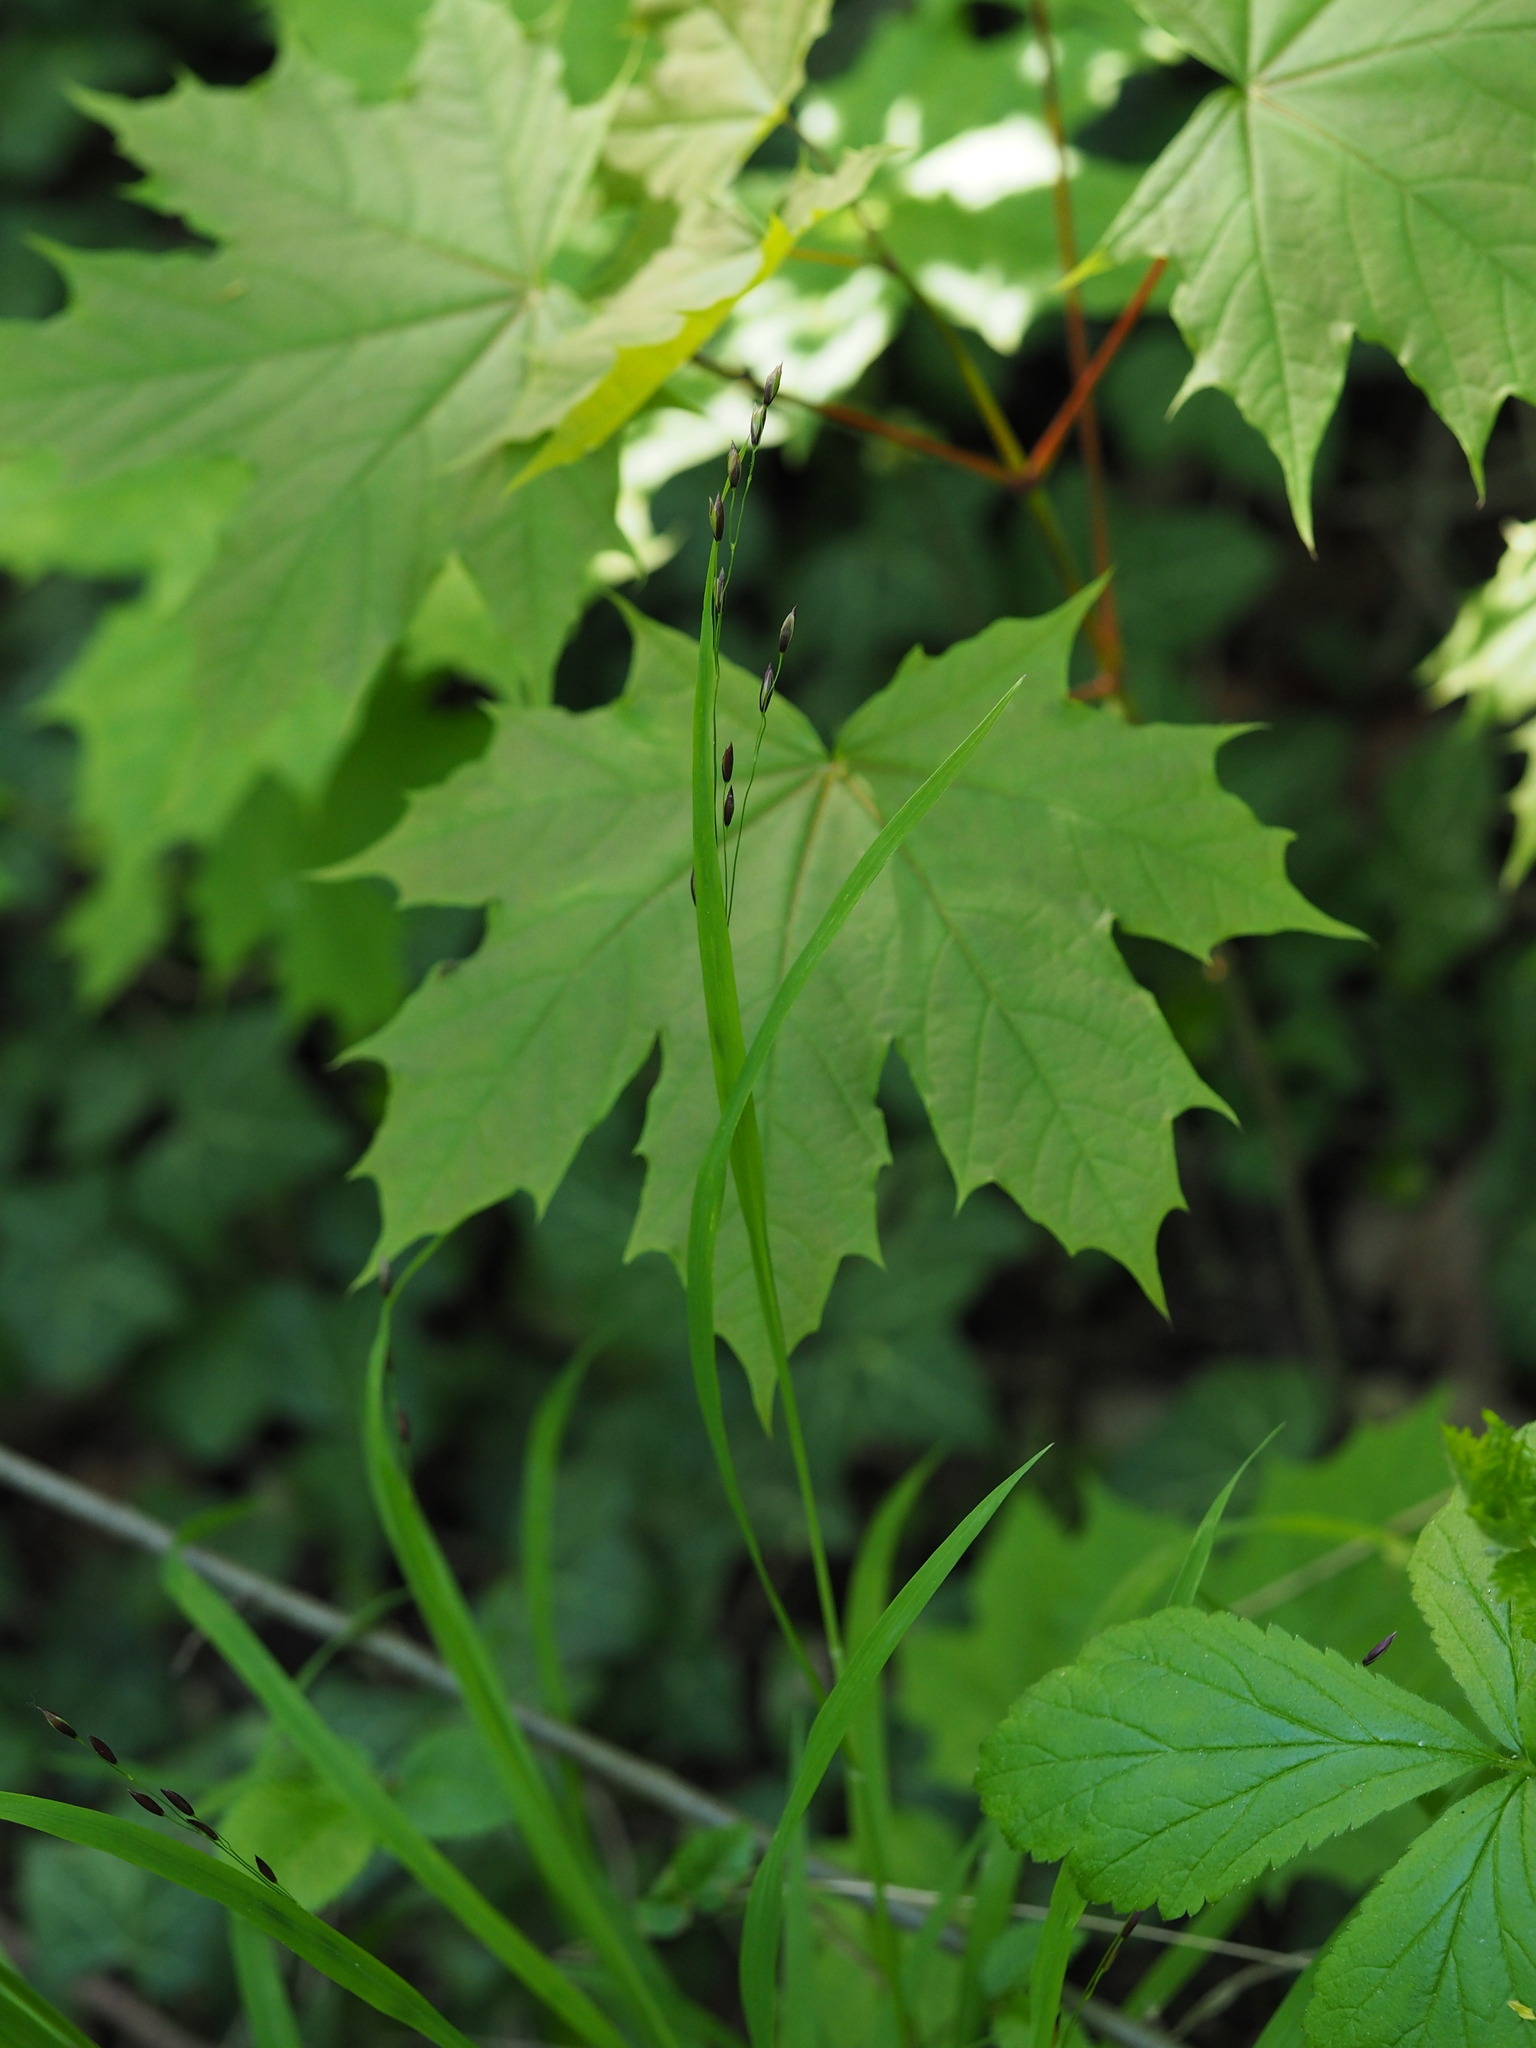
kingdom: Plantae
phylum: Tracheophyta
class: Liliopsida
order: Poales
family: Poaceae
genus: Melica
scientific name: Melica uniflora
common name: Wood melick
